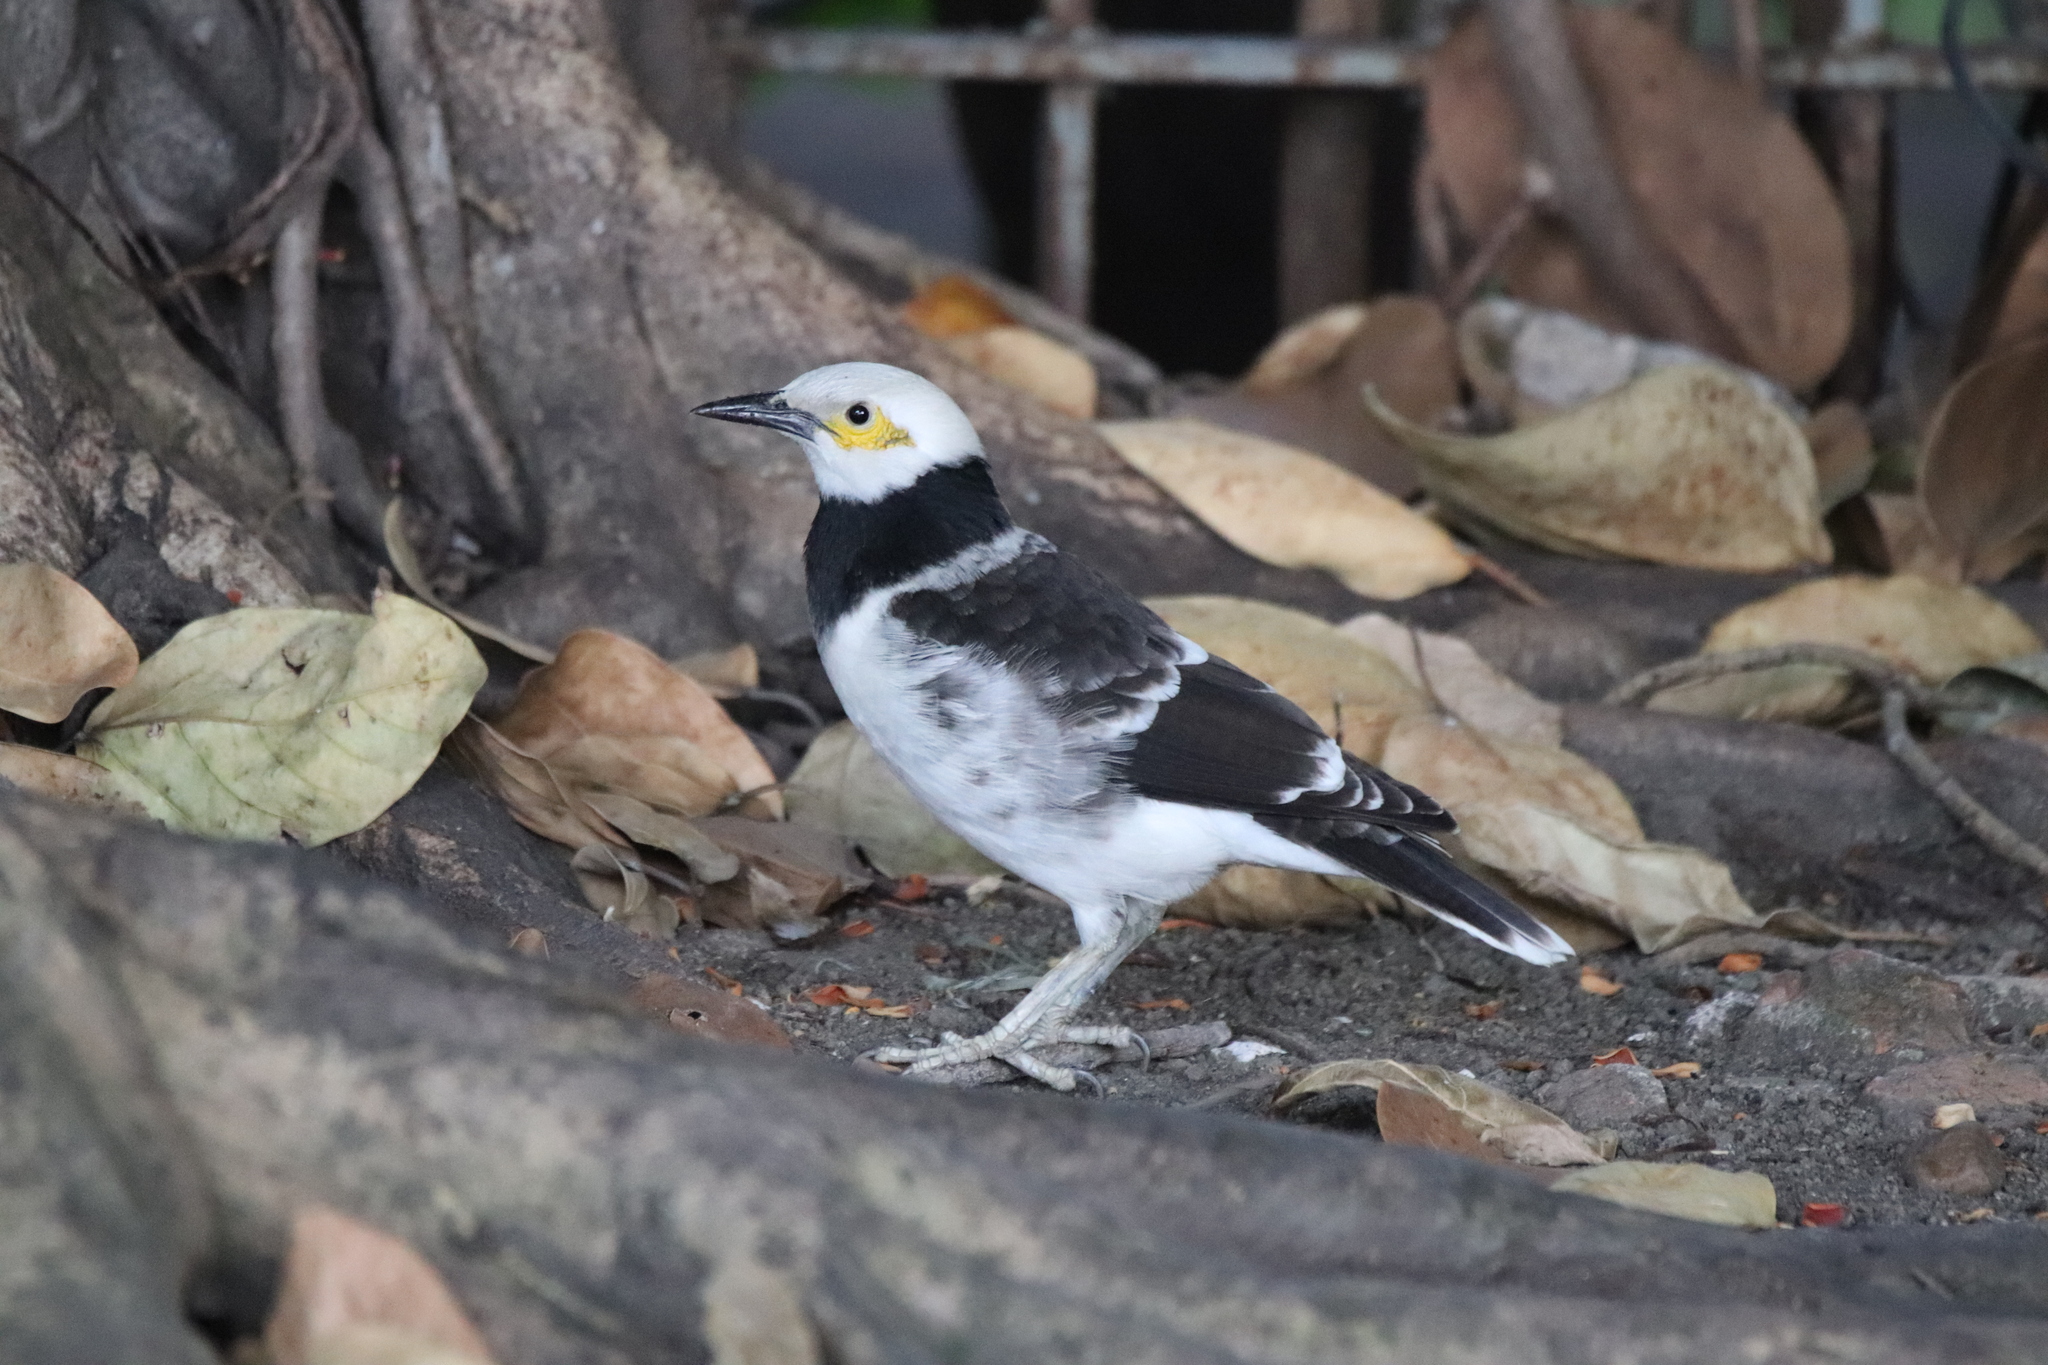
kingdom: Animalia
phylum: Chordata
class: Aves
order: Passeriformes
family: Sturnidae
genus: Gracupica
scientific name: Gracupica nigricollis
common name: Black-collared starling
